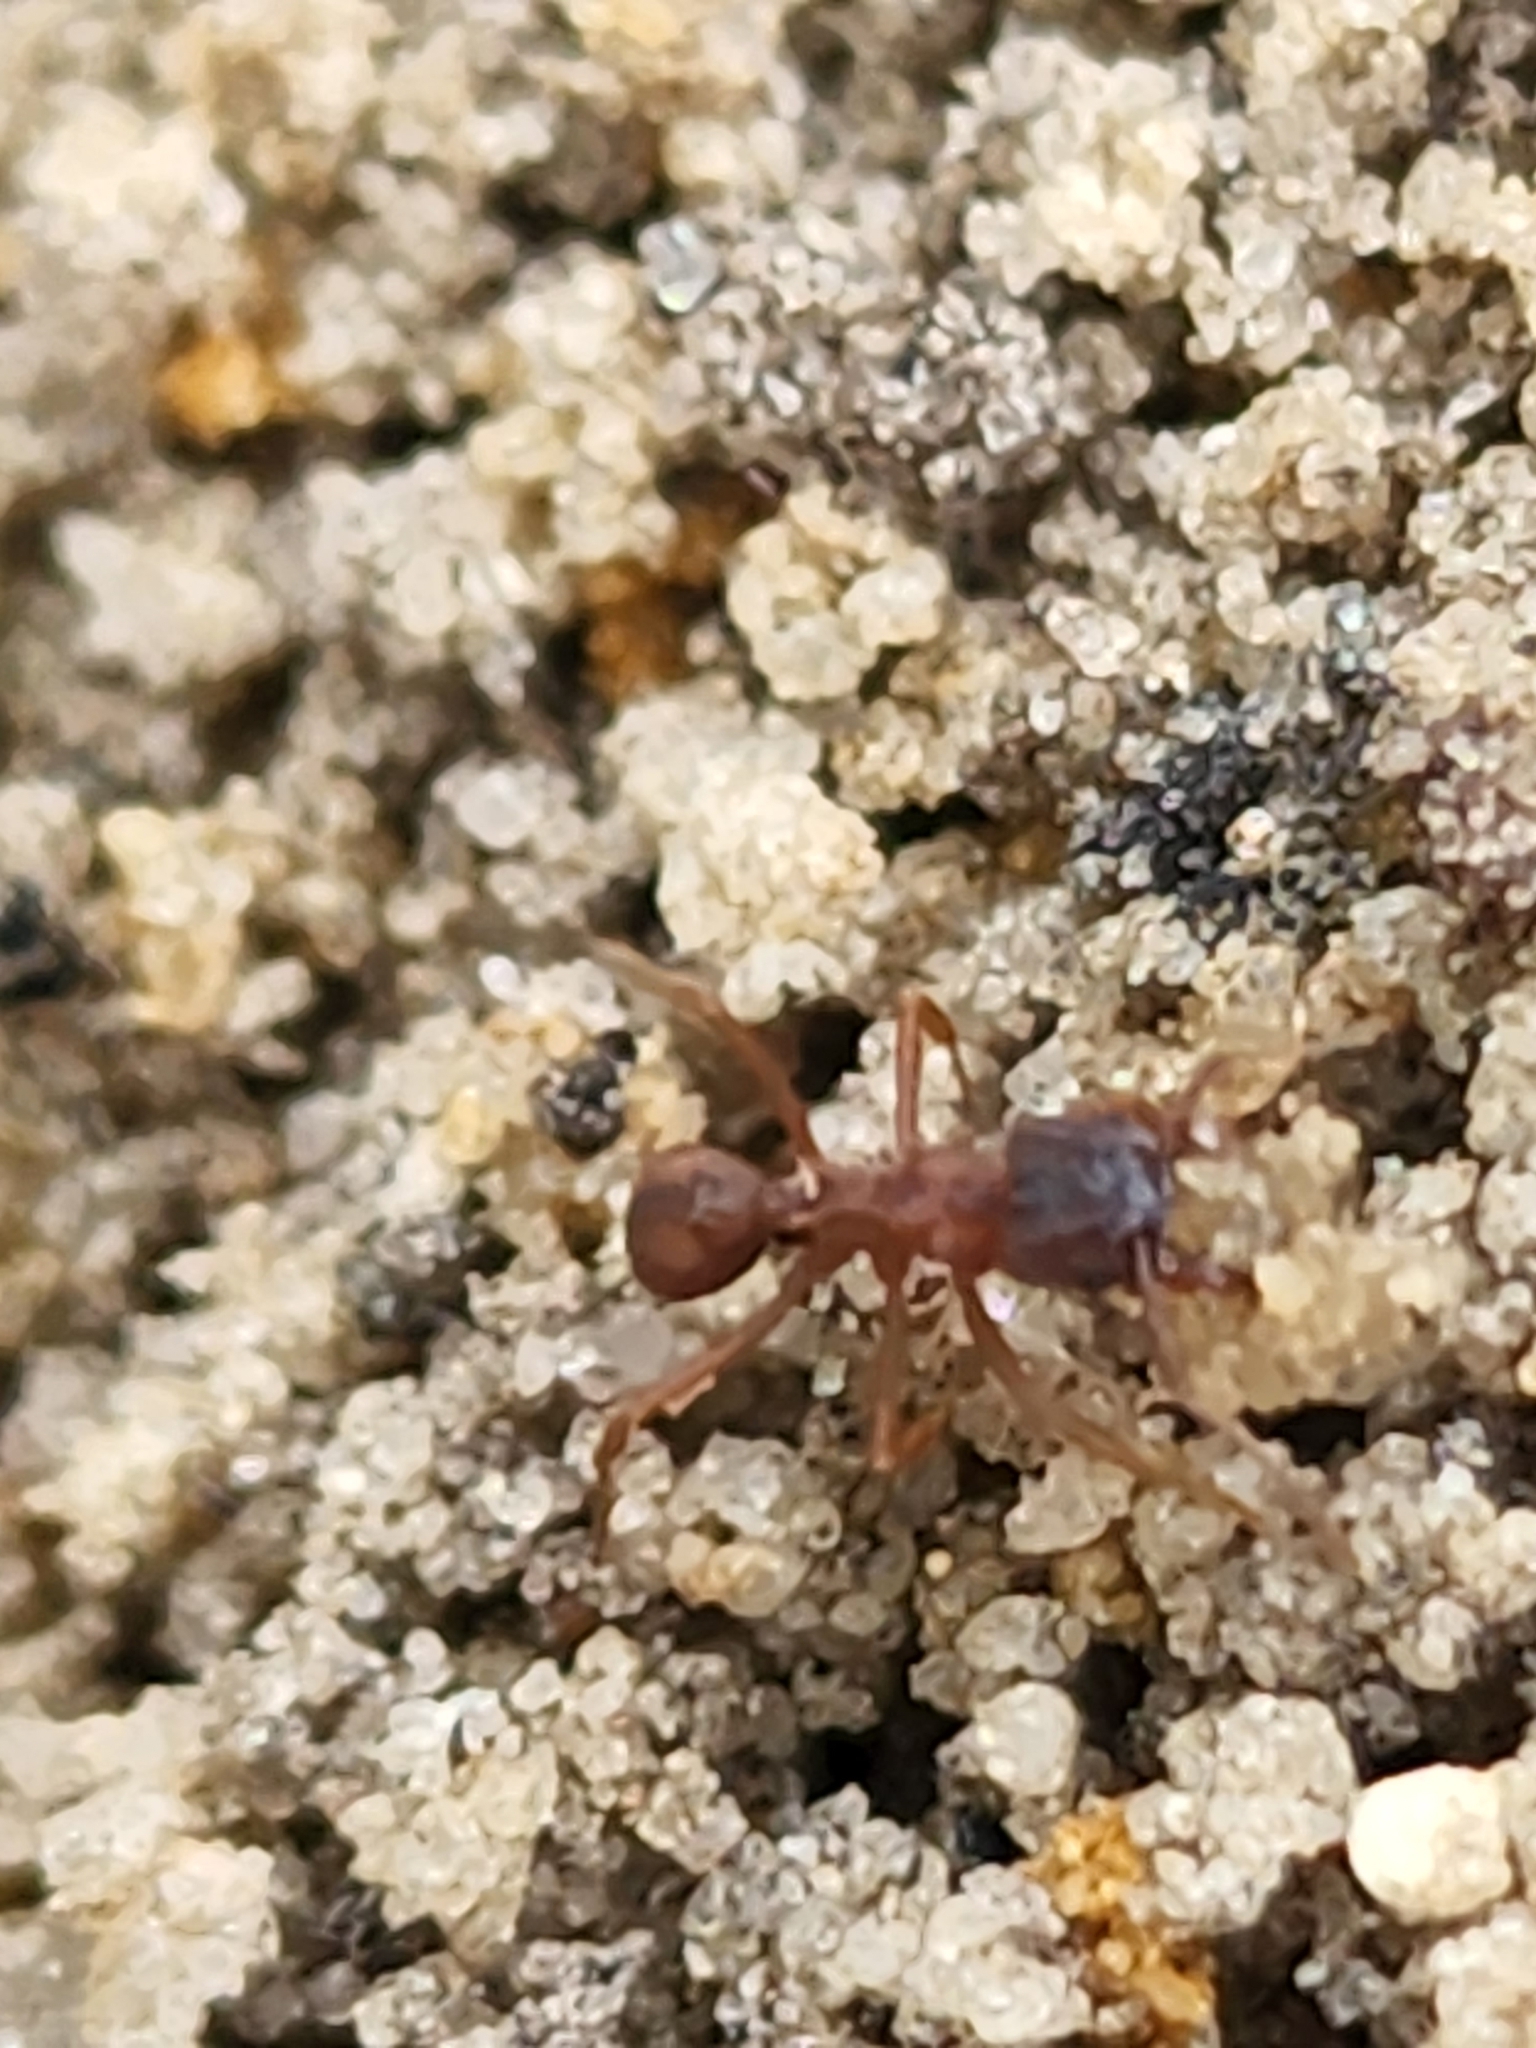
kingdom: Animalia
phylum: Arthropoda
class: Insecta
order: Hymenoptera
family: Formicidae
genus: Trachymyrmex
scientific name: Trachymyrmex septentrionalis
